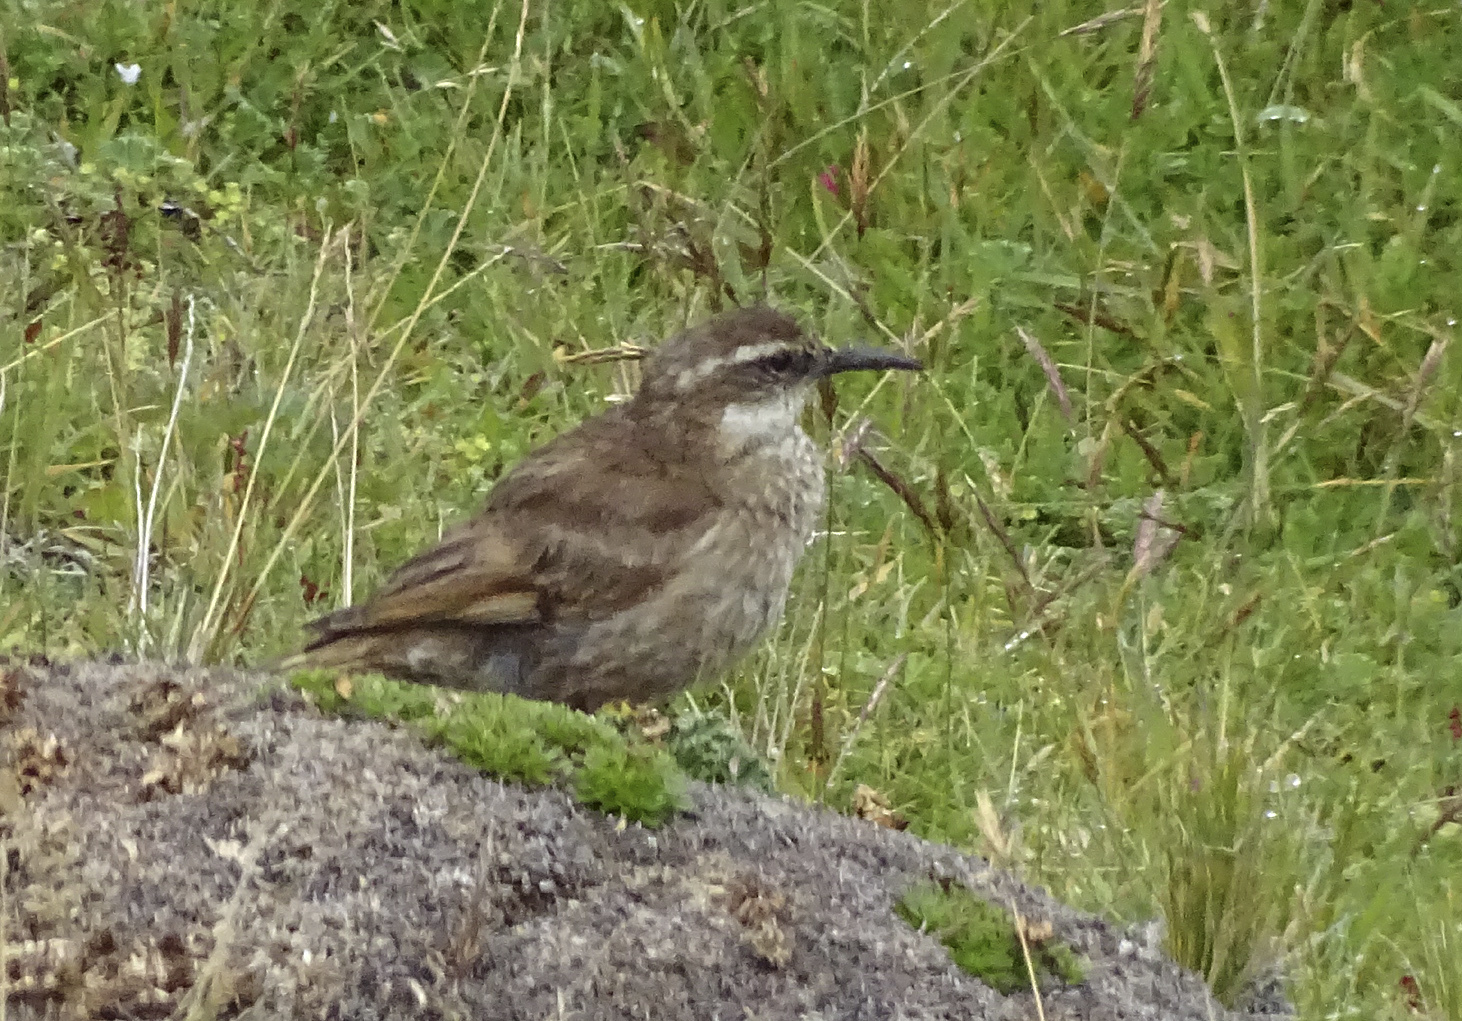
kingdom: Animalia
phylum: Chordata
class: Aves
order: Passeriformes
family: Furnariidae
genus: Cinclodes
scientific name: Cinclodes albidiventris
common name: Chestnut-winged cinclodes
